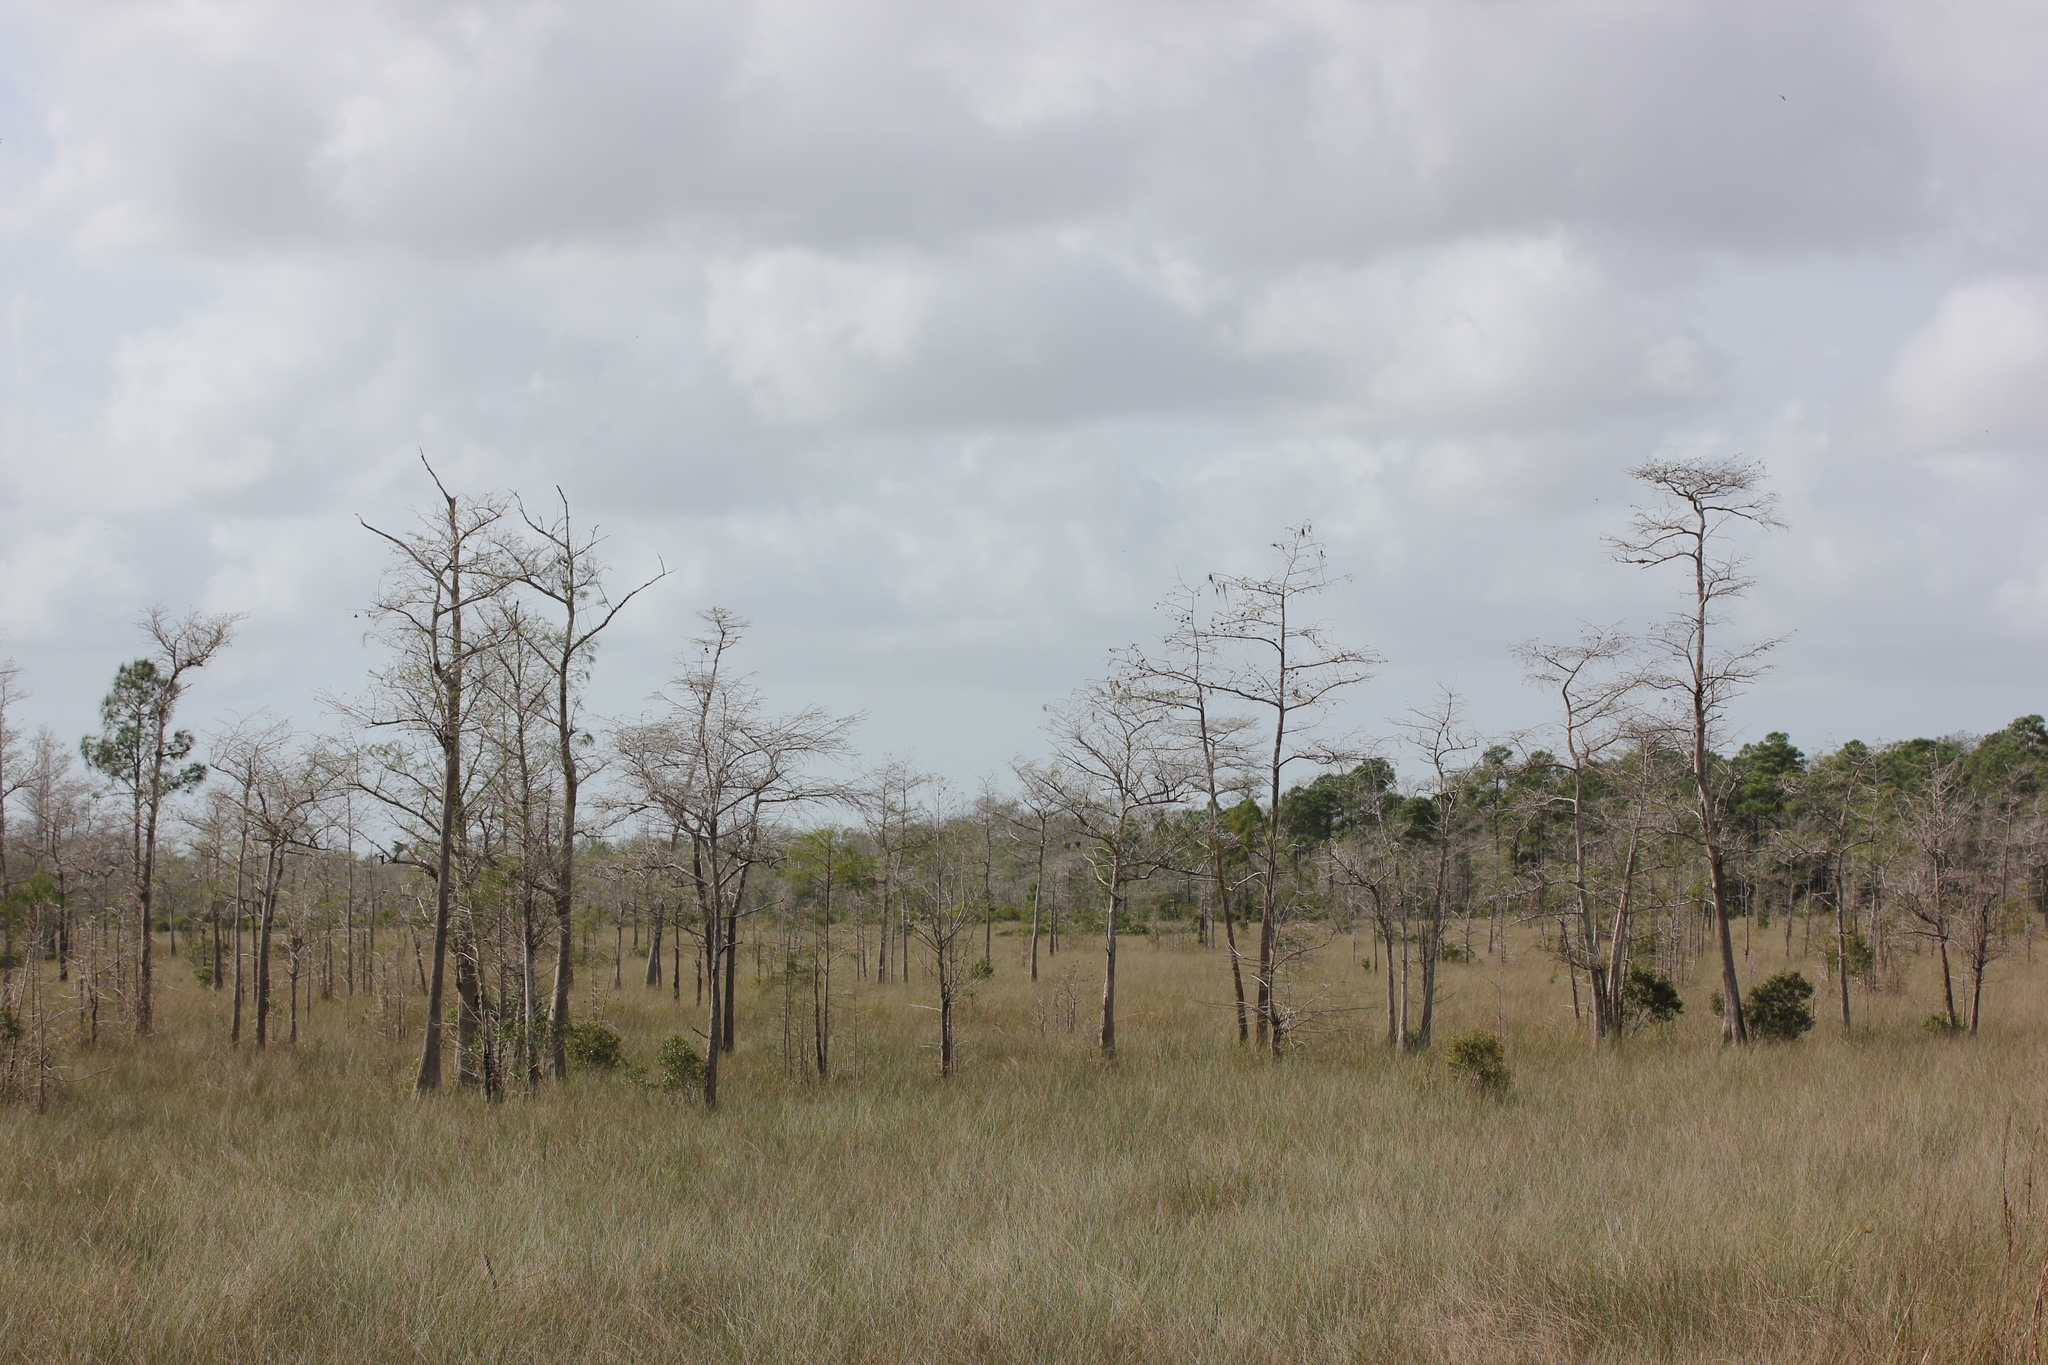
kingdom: Plantae
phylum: Tracheophyta
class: Pinopsida
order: Pinales
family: Cupressaceae
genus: Taxodium
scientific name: Taxodium distichum
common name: Bald cypress
